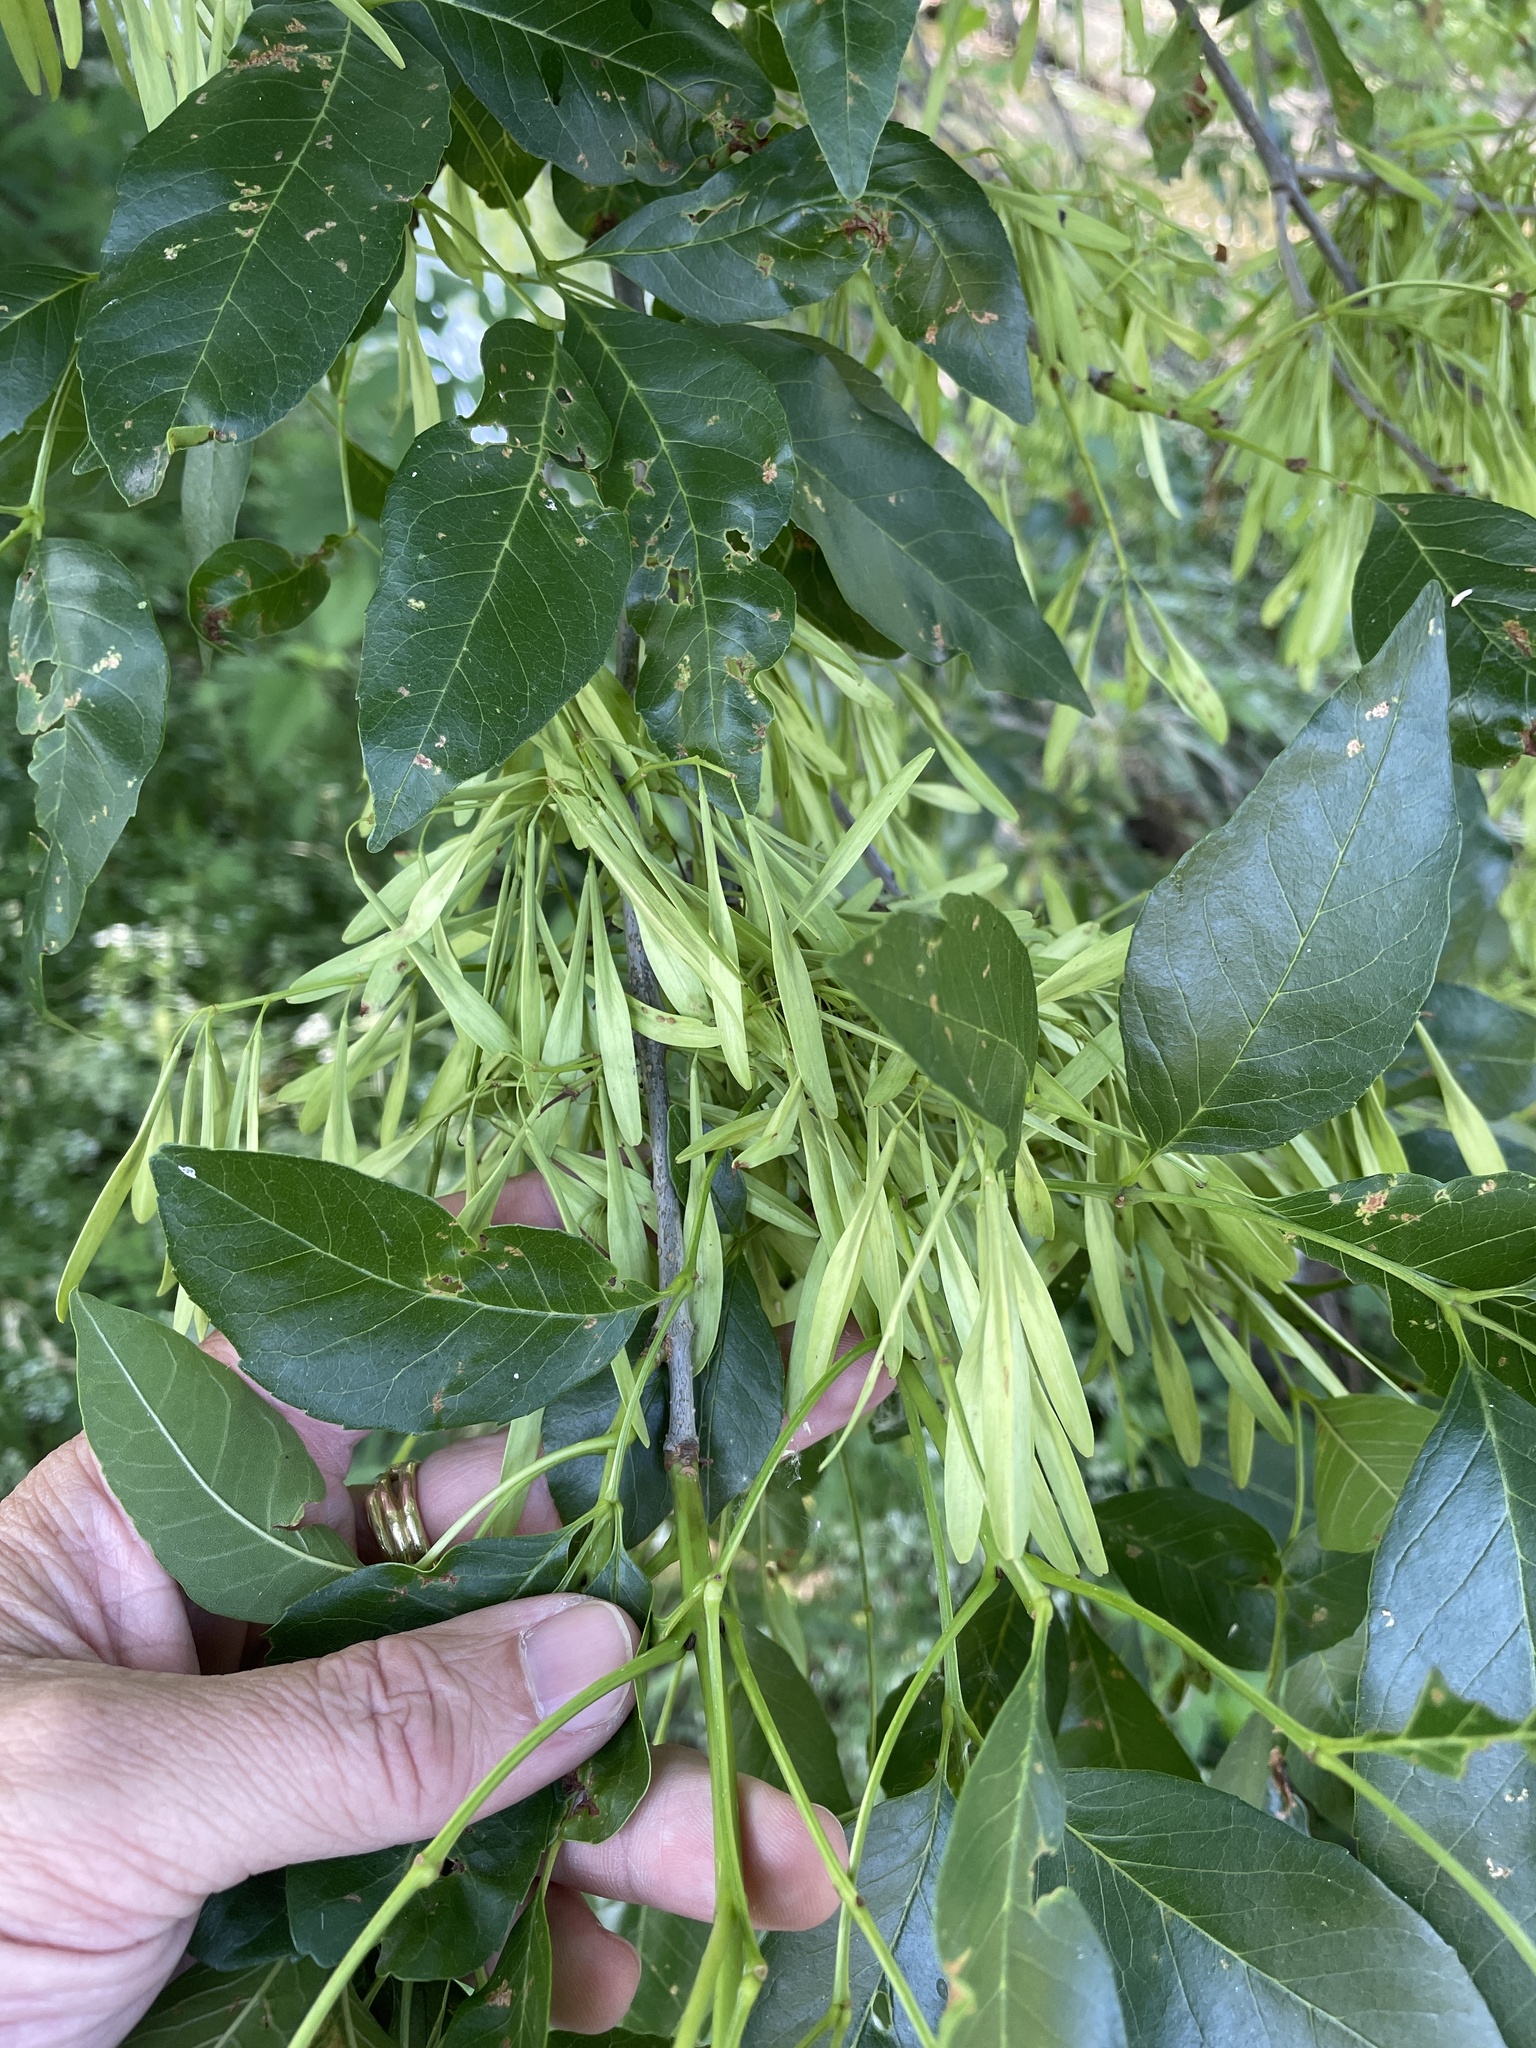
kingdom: Plantae
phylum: Tracheophyta
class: Magnoliopsida
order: Lamiales
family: Oleaceae
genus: Fraxinus
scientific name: Fraxinus pennsylvanica
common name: Green ash
